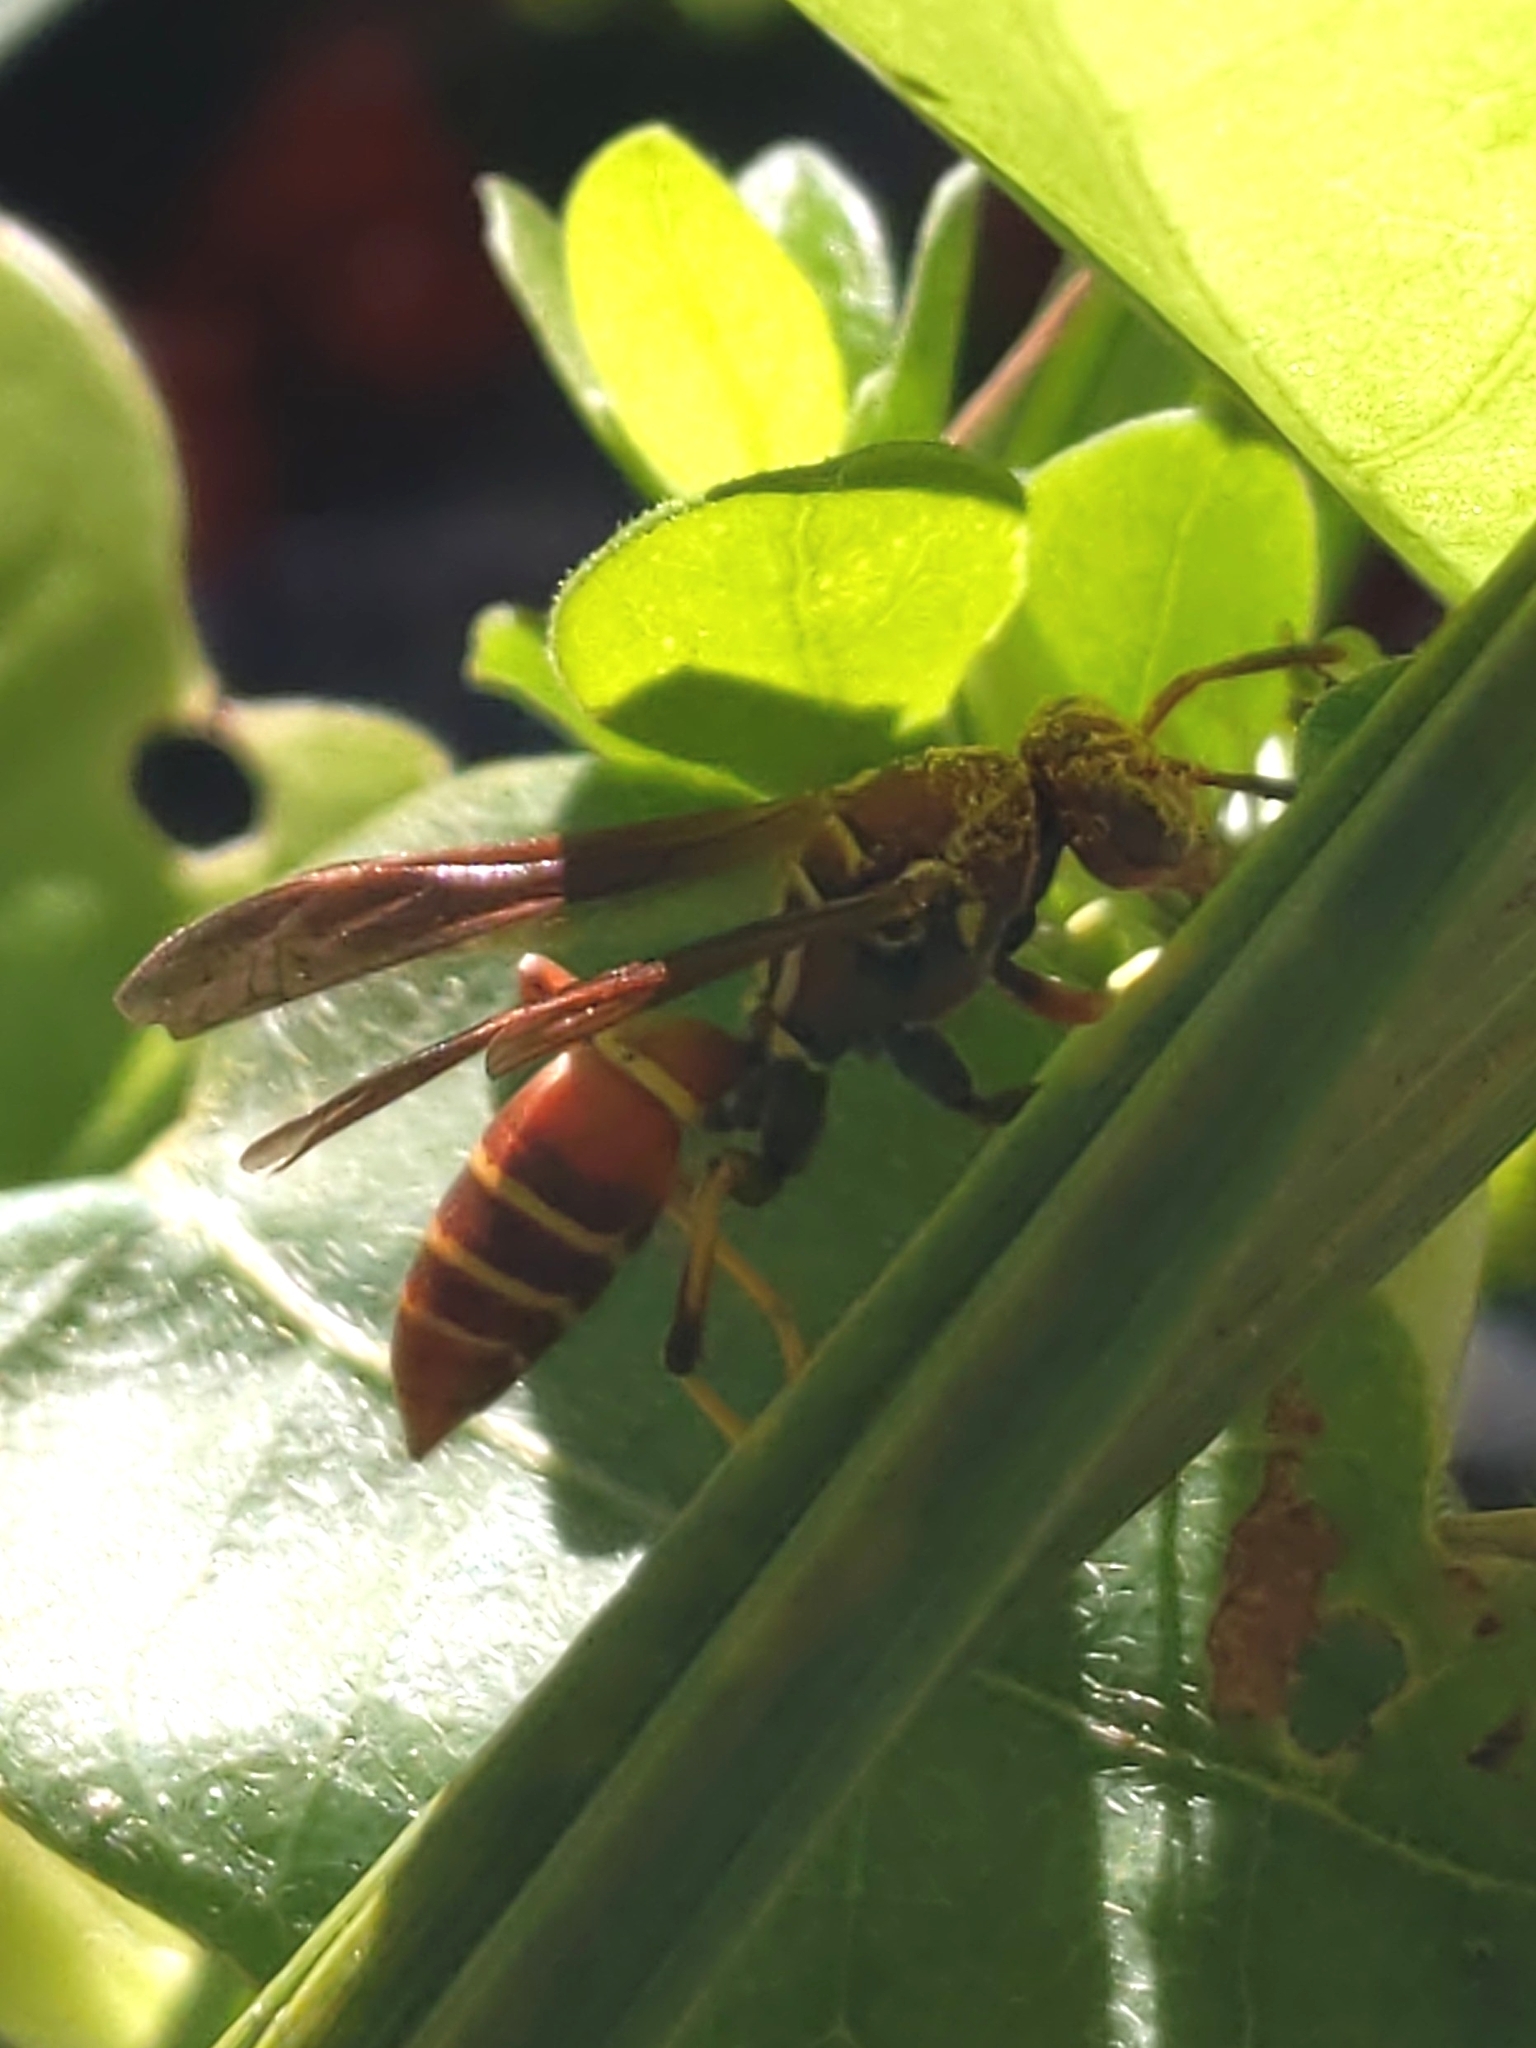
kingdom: Animalia
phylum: Arthropoda
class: Insecta
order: Hymenoptera
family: Vespidae
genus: Fuscopolistes
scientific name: Fuscopolistes
